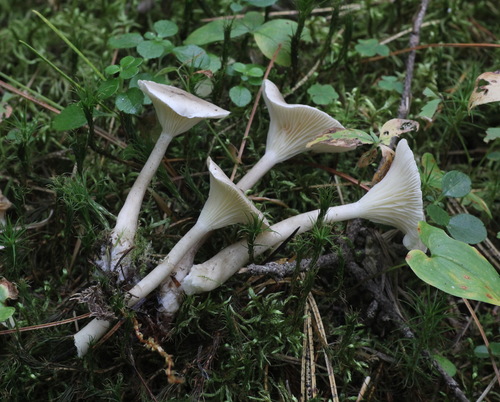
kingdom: Fungi
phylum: Basidiomycota
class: Agaricomycetes
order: Agaricales
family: Hygrophoraceae
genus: Ampulloclitocybe
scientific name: Ampulloclitocybe clavipes
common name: Club foot
